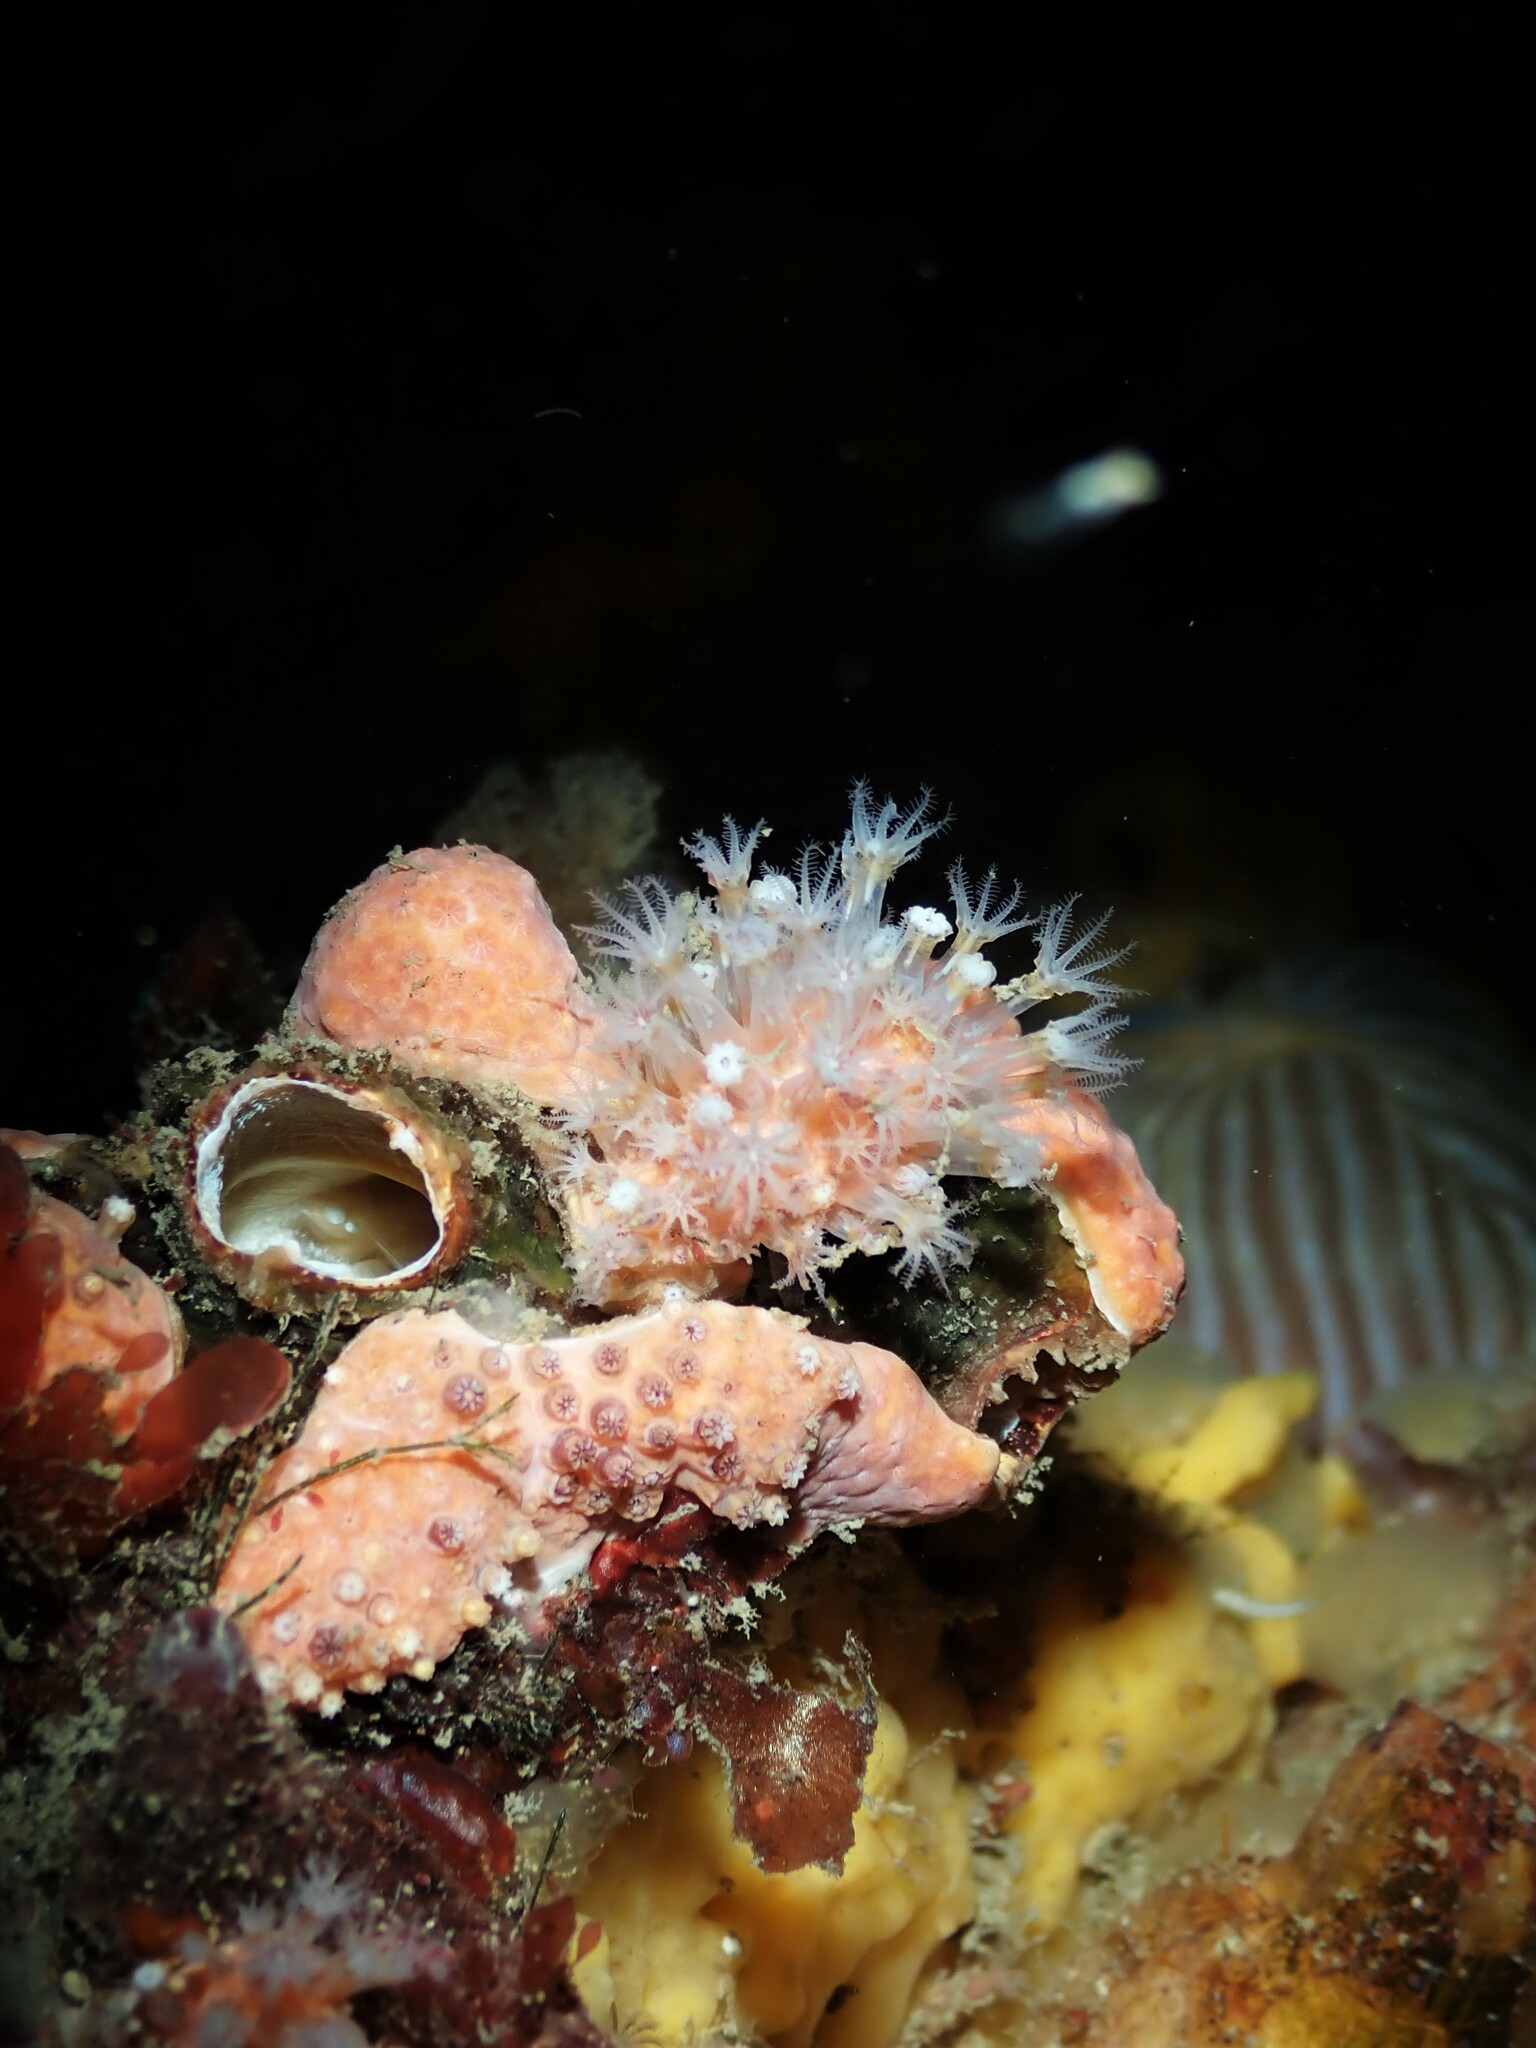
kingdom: Animalia
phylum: Cnidaria
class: Anthozoa
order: Malacalcyonacea
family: Alcyoniidae
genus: Ushanaia
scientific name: Ushanaia fervens
